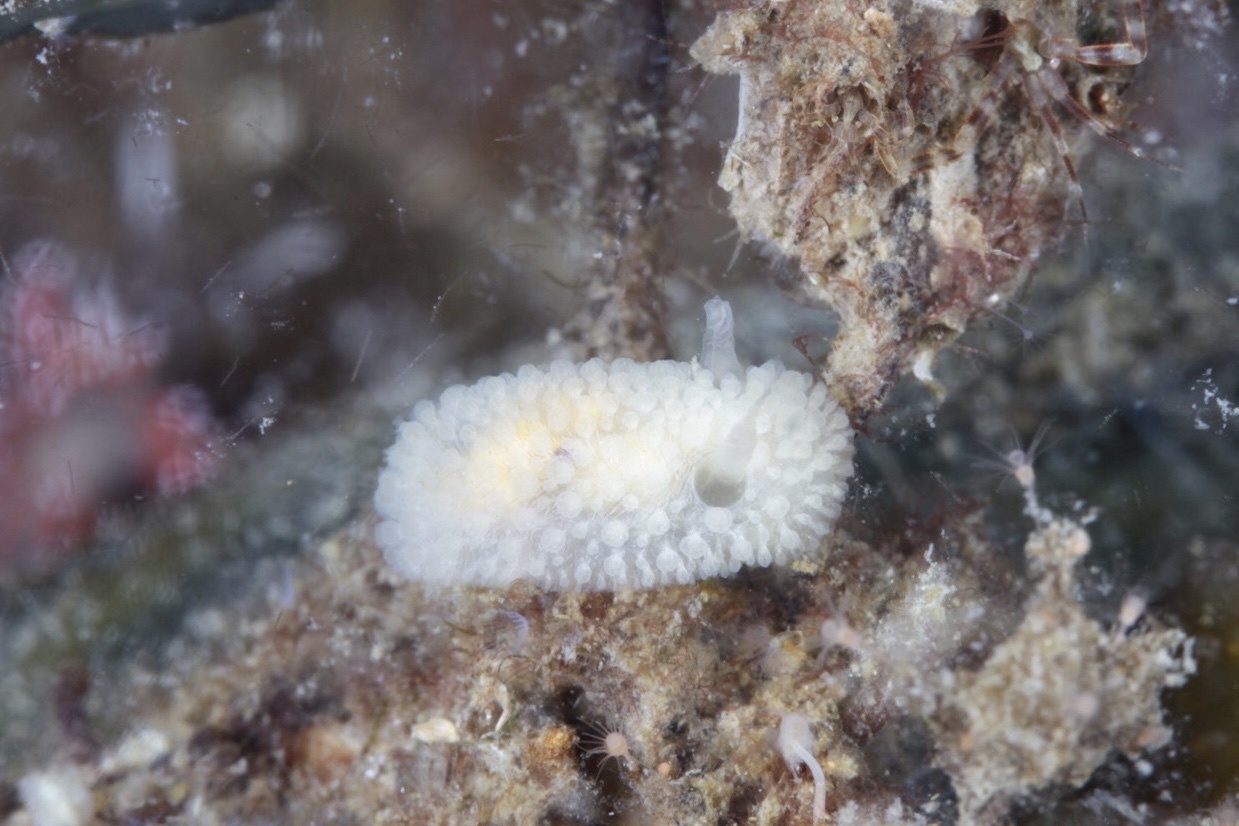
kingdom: Animalia
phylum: Mollusca
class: Gastropoda
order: Nudibranchia
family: Onchidorididae
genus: Onchidoris
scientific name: Onchidoris muricata
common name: Rough doris
